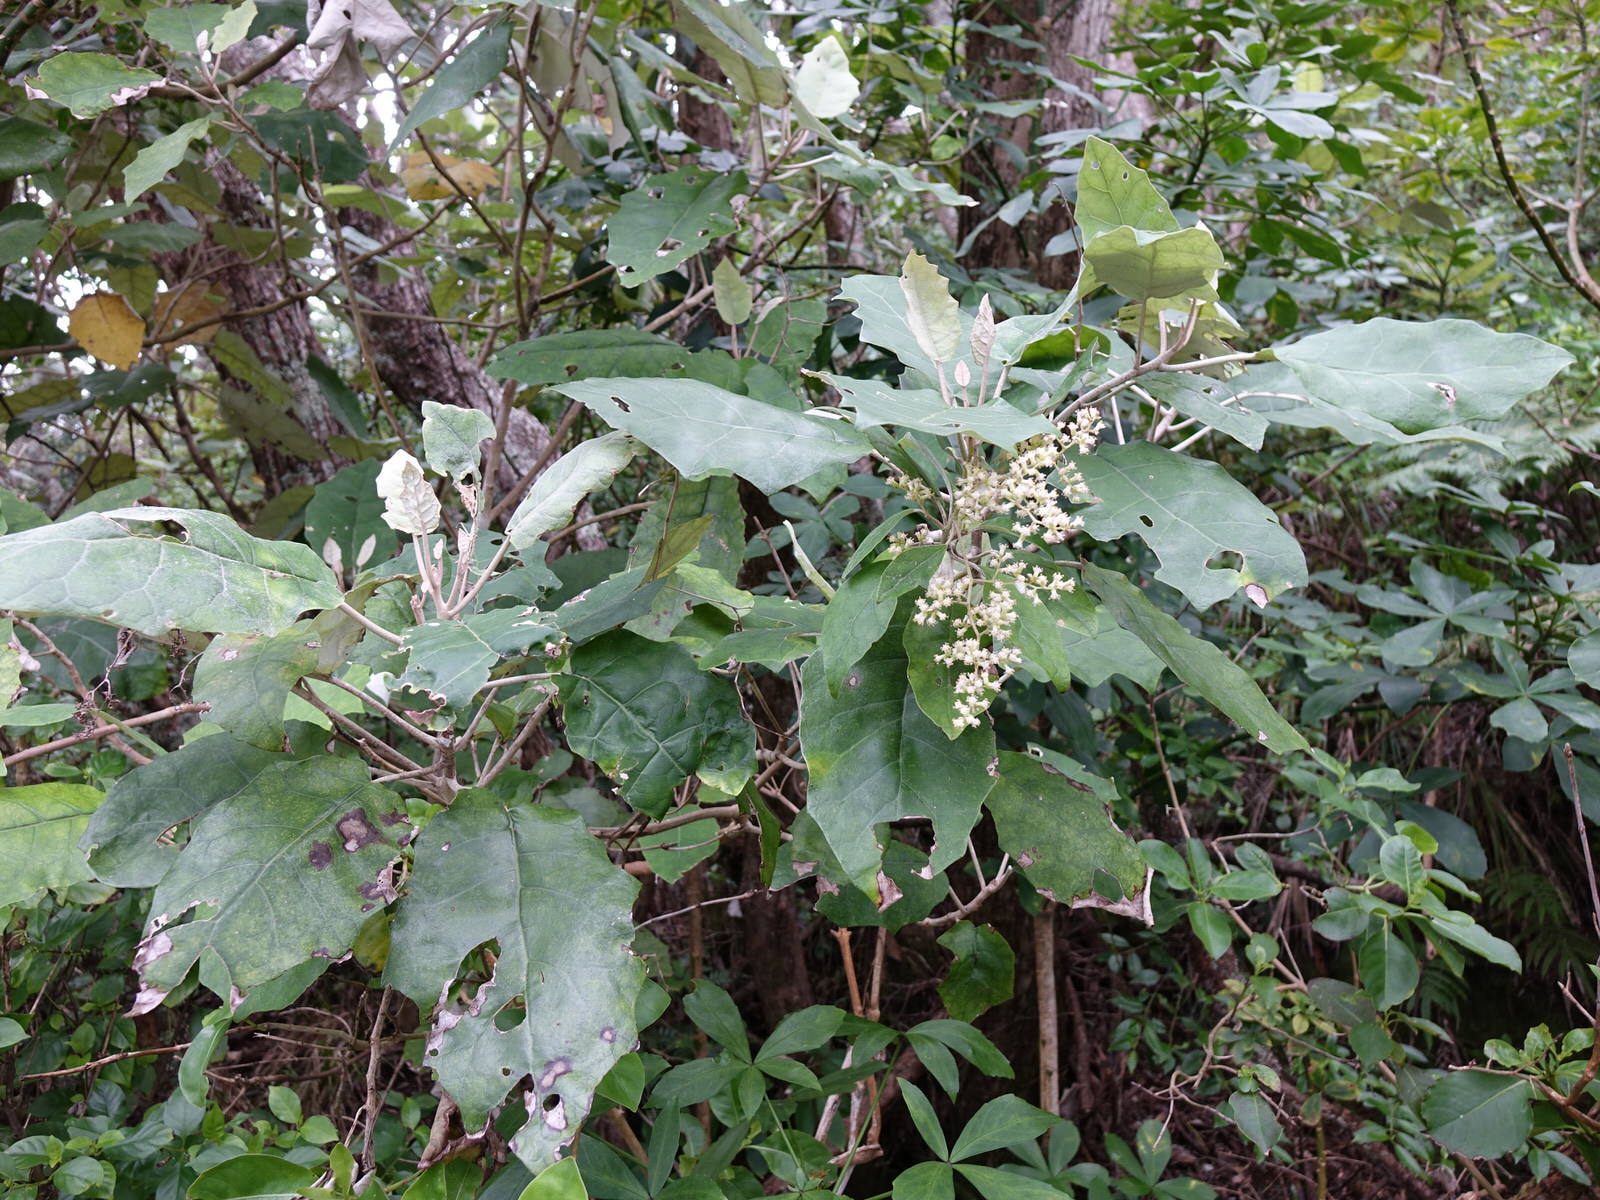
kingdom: Plantae
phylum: Tracheophyta
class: Magnoliopsida
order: Asterales
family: Asteraceae
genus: Brachyglottis
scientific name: Brachyglottis repanda
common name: Hedge ragwort
